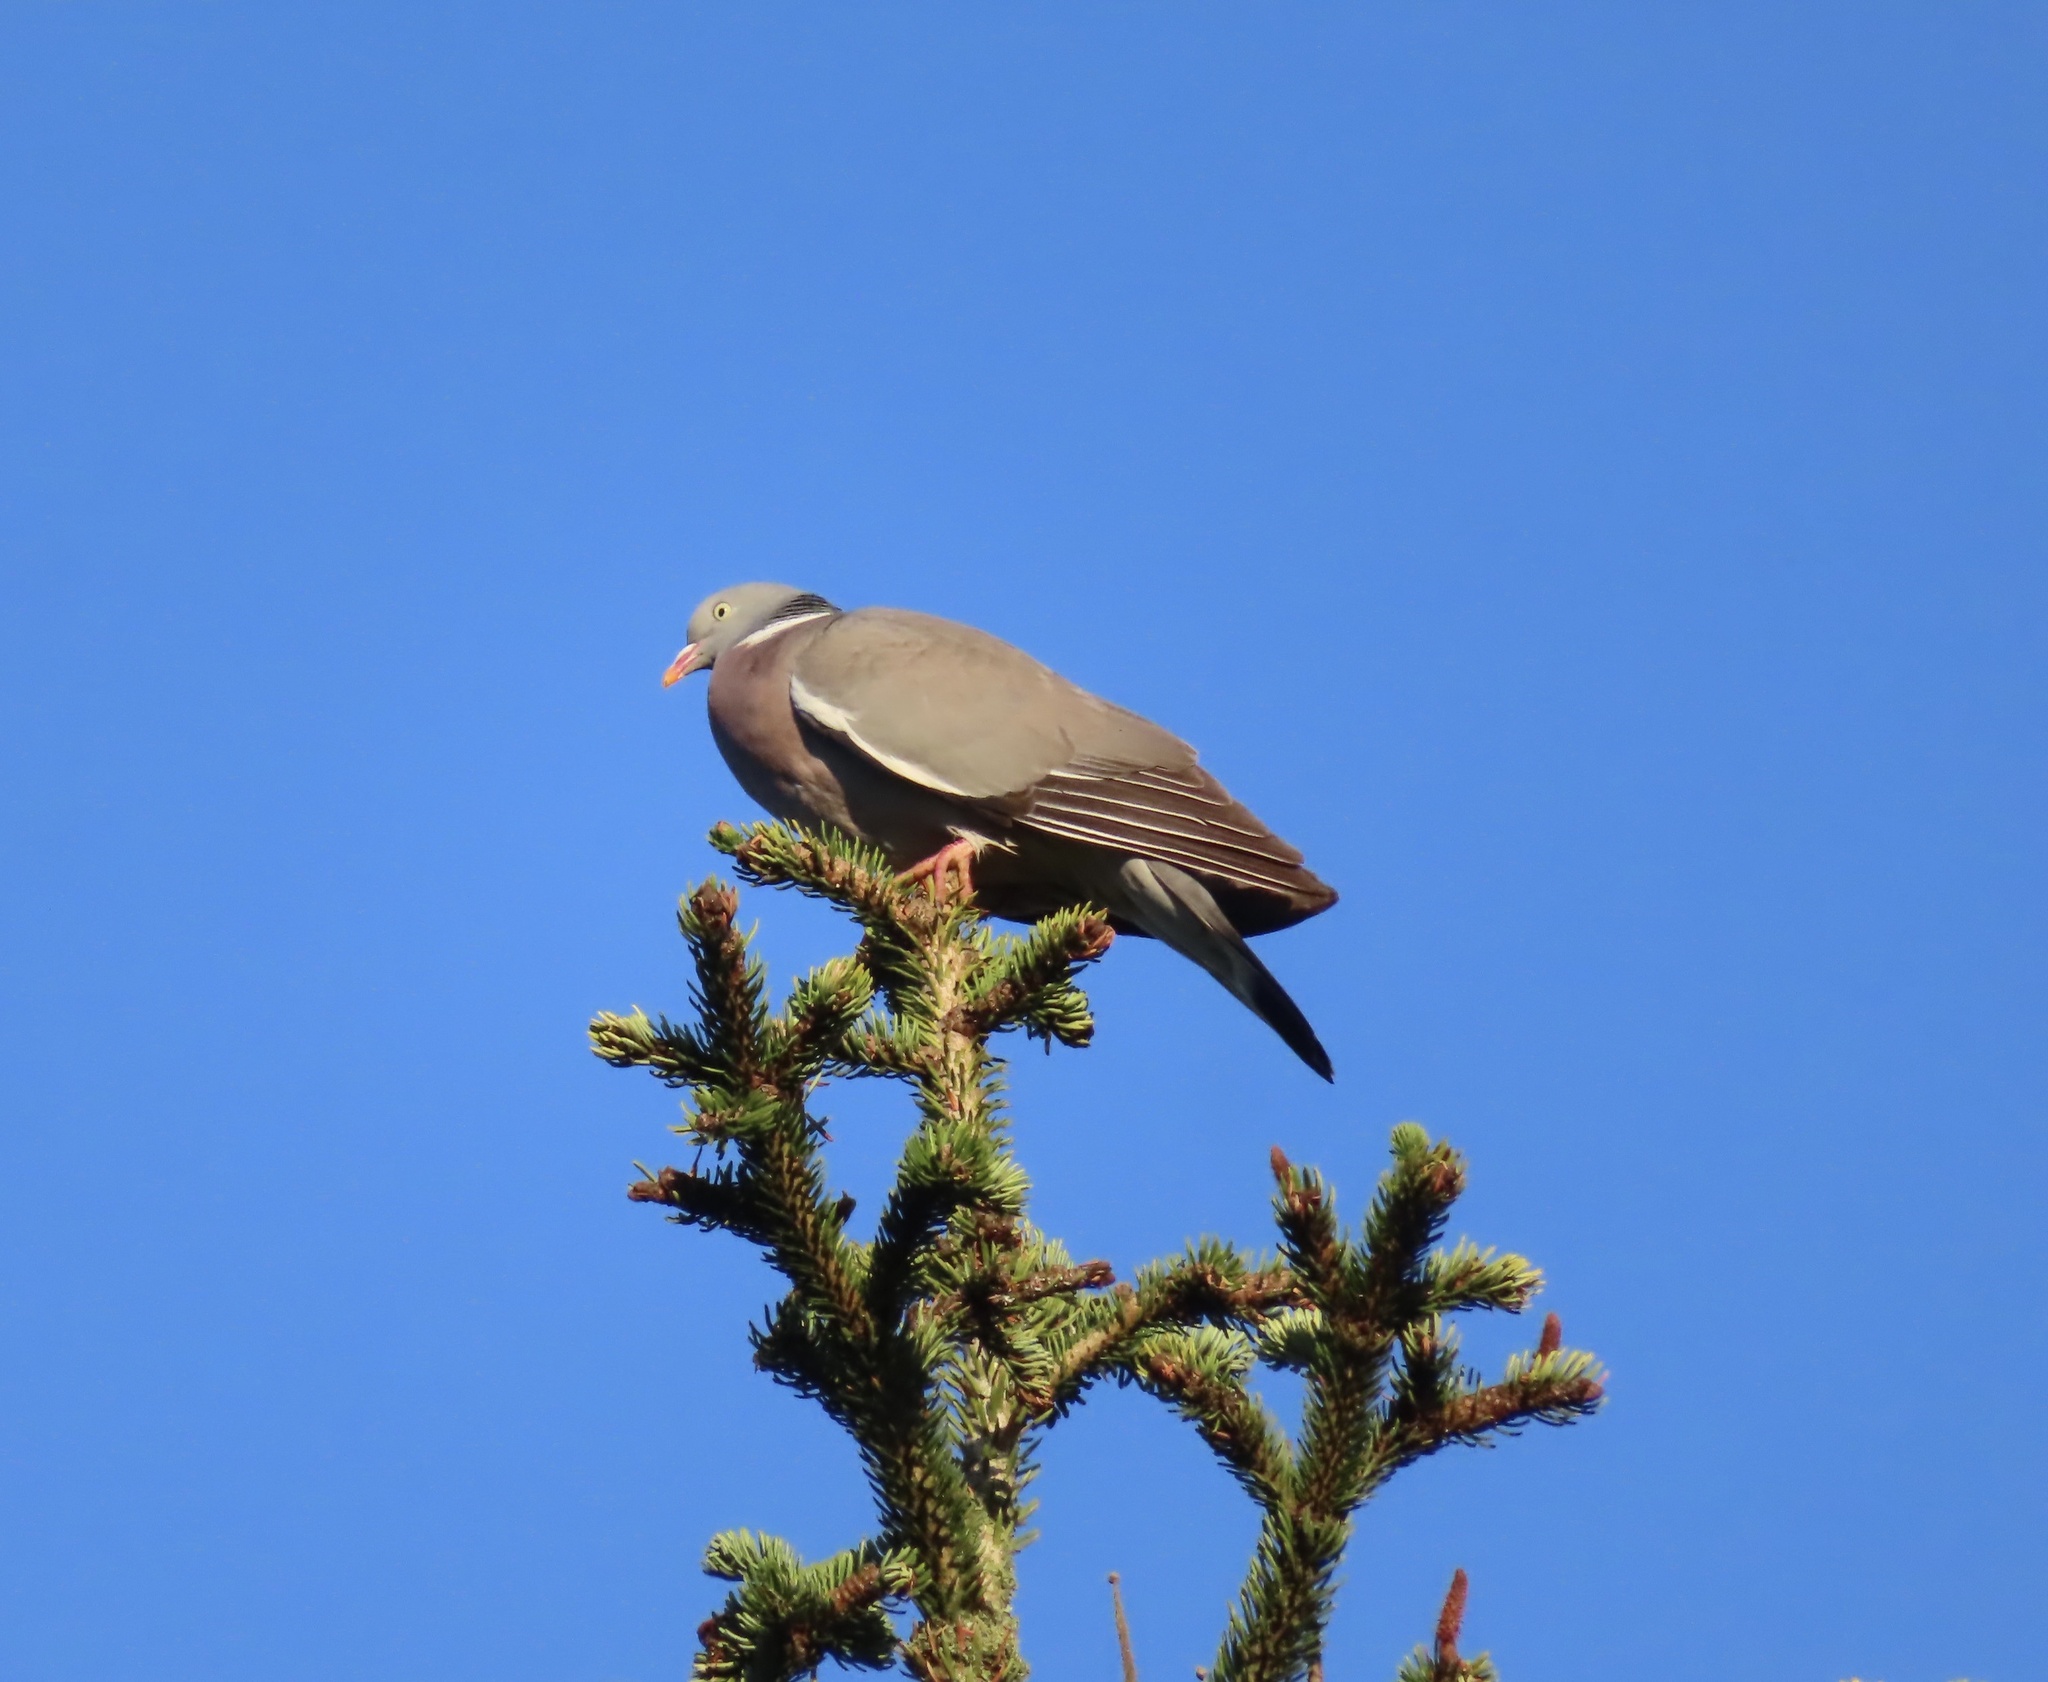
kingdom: Animalia
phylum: Chordata
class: Aves
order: Columbiformes
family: Columbidae
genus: Columba
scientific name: Columba palumbus
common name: Common wood pigeon
